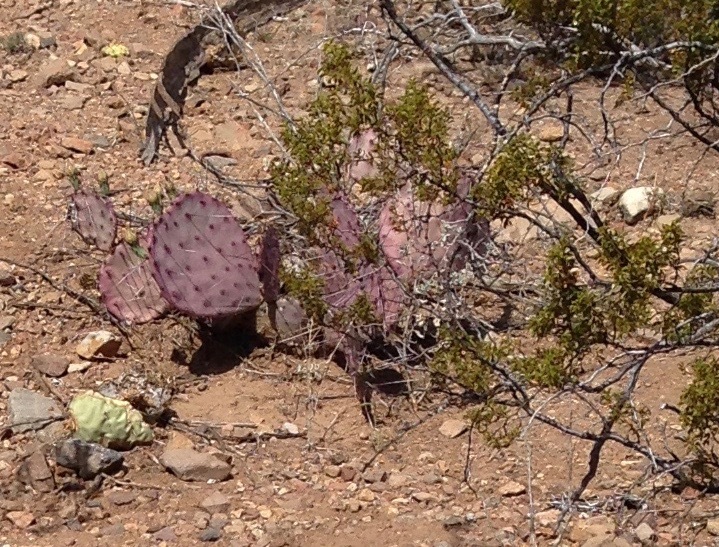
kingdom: Plantae
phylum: Tracheophyta
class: Magnoliopsida
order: Caryophyllales
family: Cactaceae
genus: Opuntia
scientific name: Opuntia phaeacantha
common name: New mexico prickly-pear
